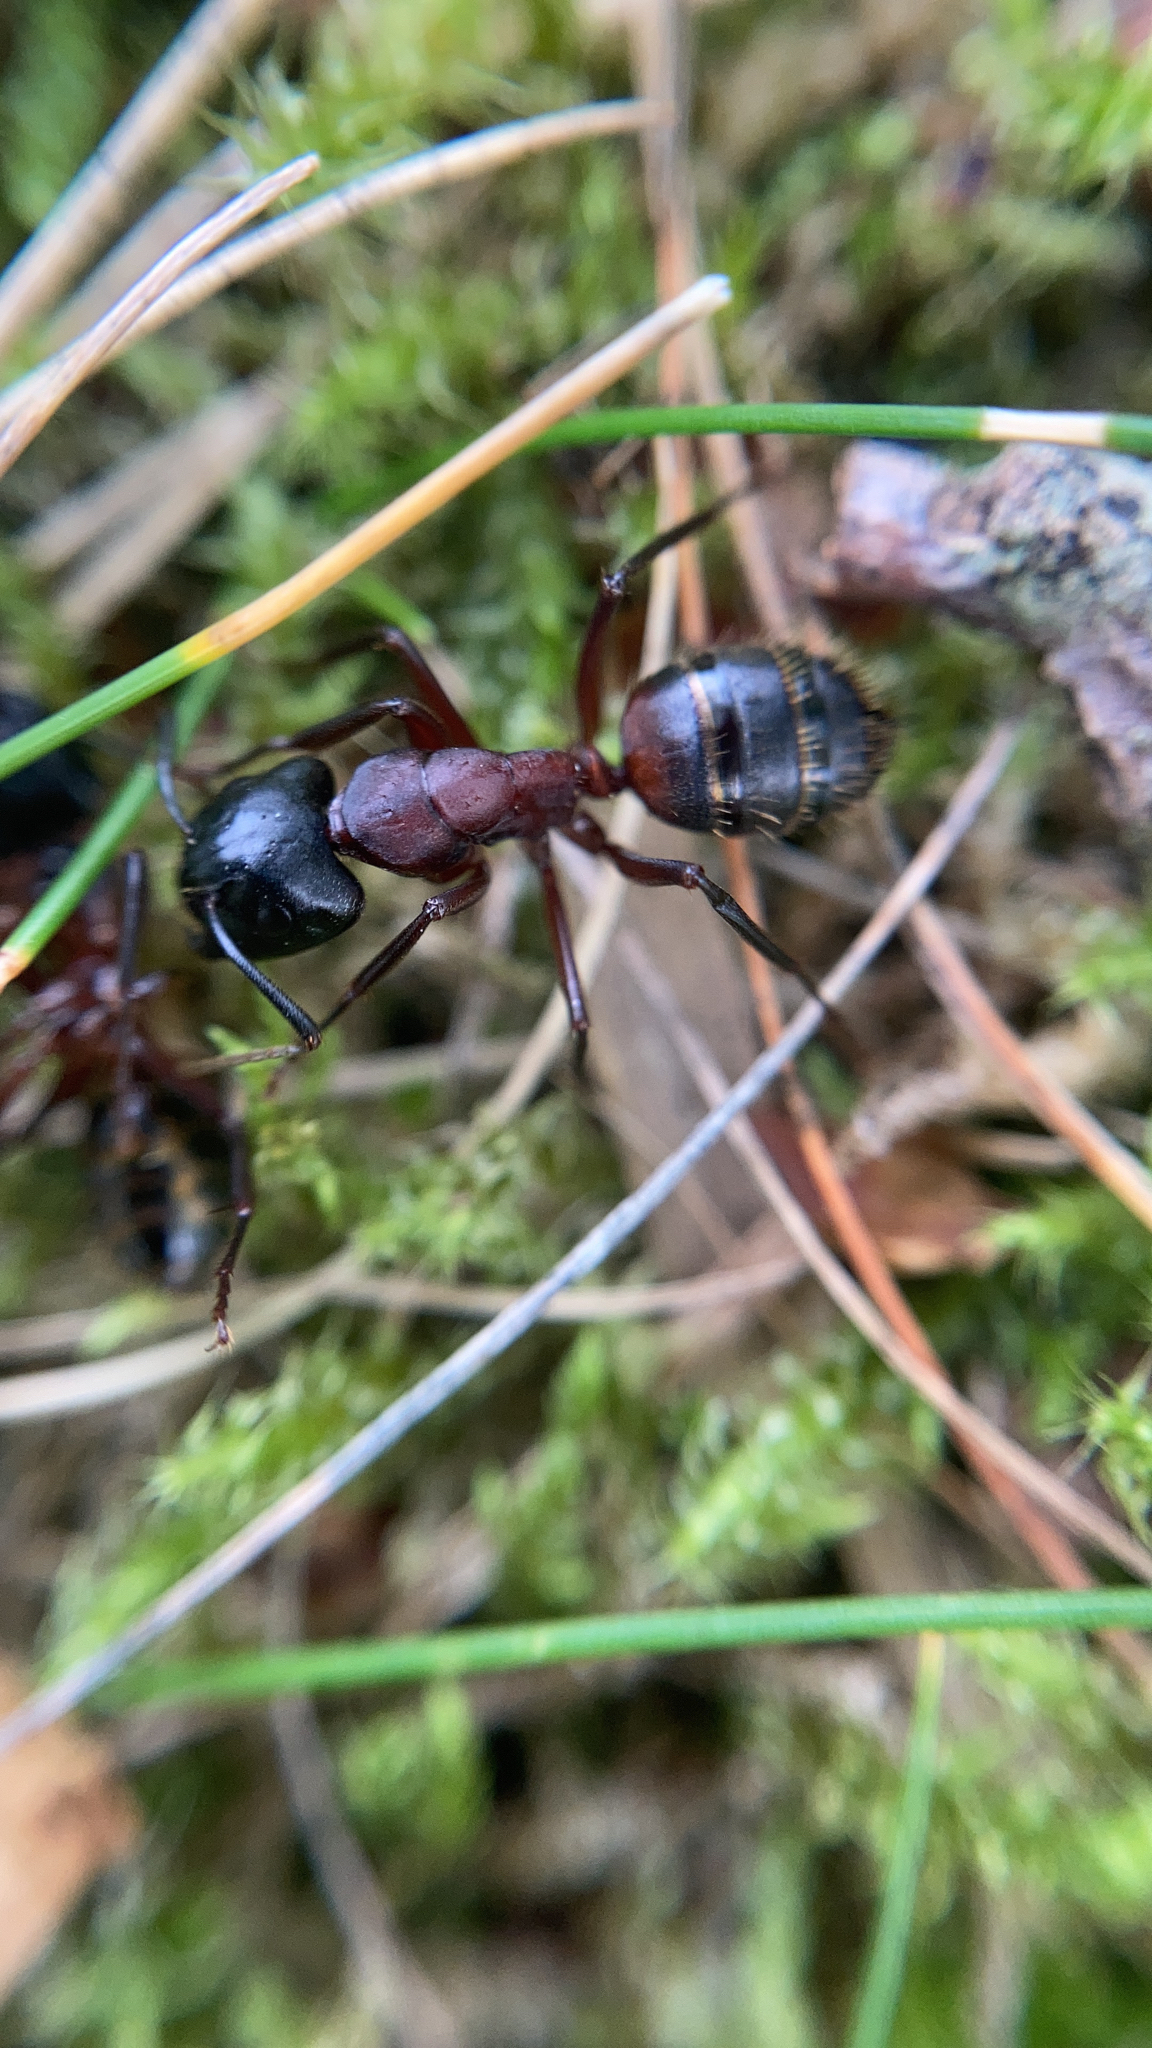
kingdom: Animalia
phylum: Arthropoda
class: Insecta
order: Hymenoptera
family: Formicidae
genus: Camponotus
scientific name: Camponotus ligniperdus
